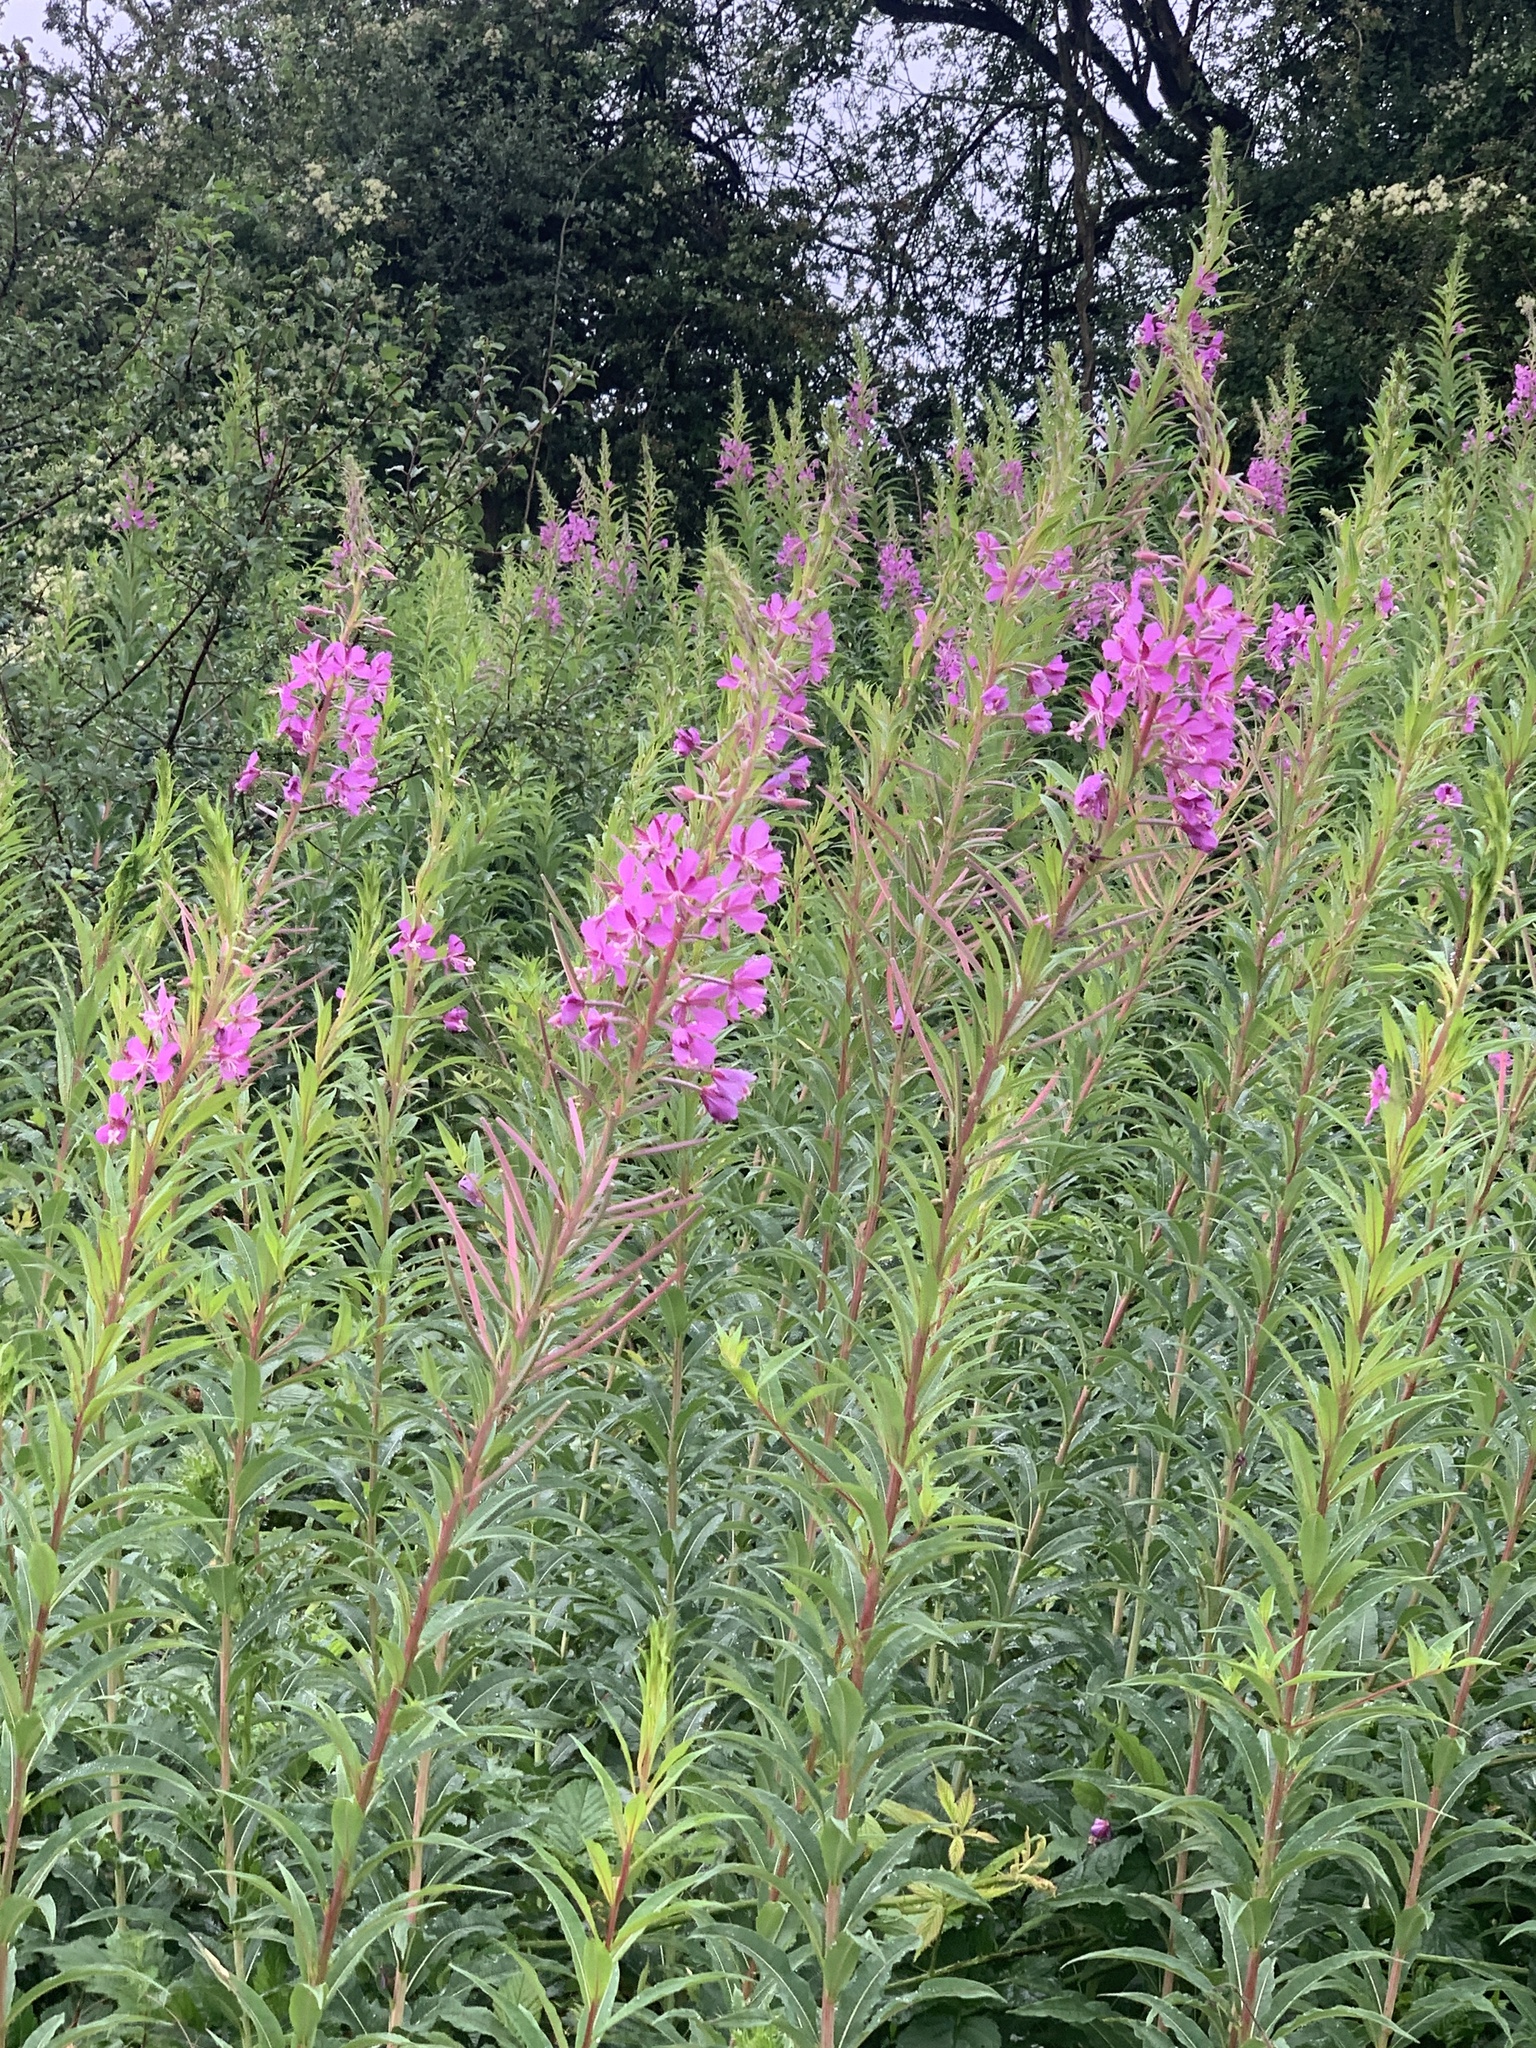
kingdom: Plantae
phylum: Tracheophyta
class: Magnoliopsida
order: Myrtales
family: Onagraceae
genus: Chamaenerion
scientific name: Chamaenerion angustifolium
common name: Fireweed
